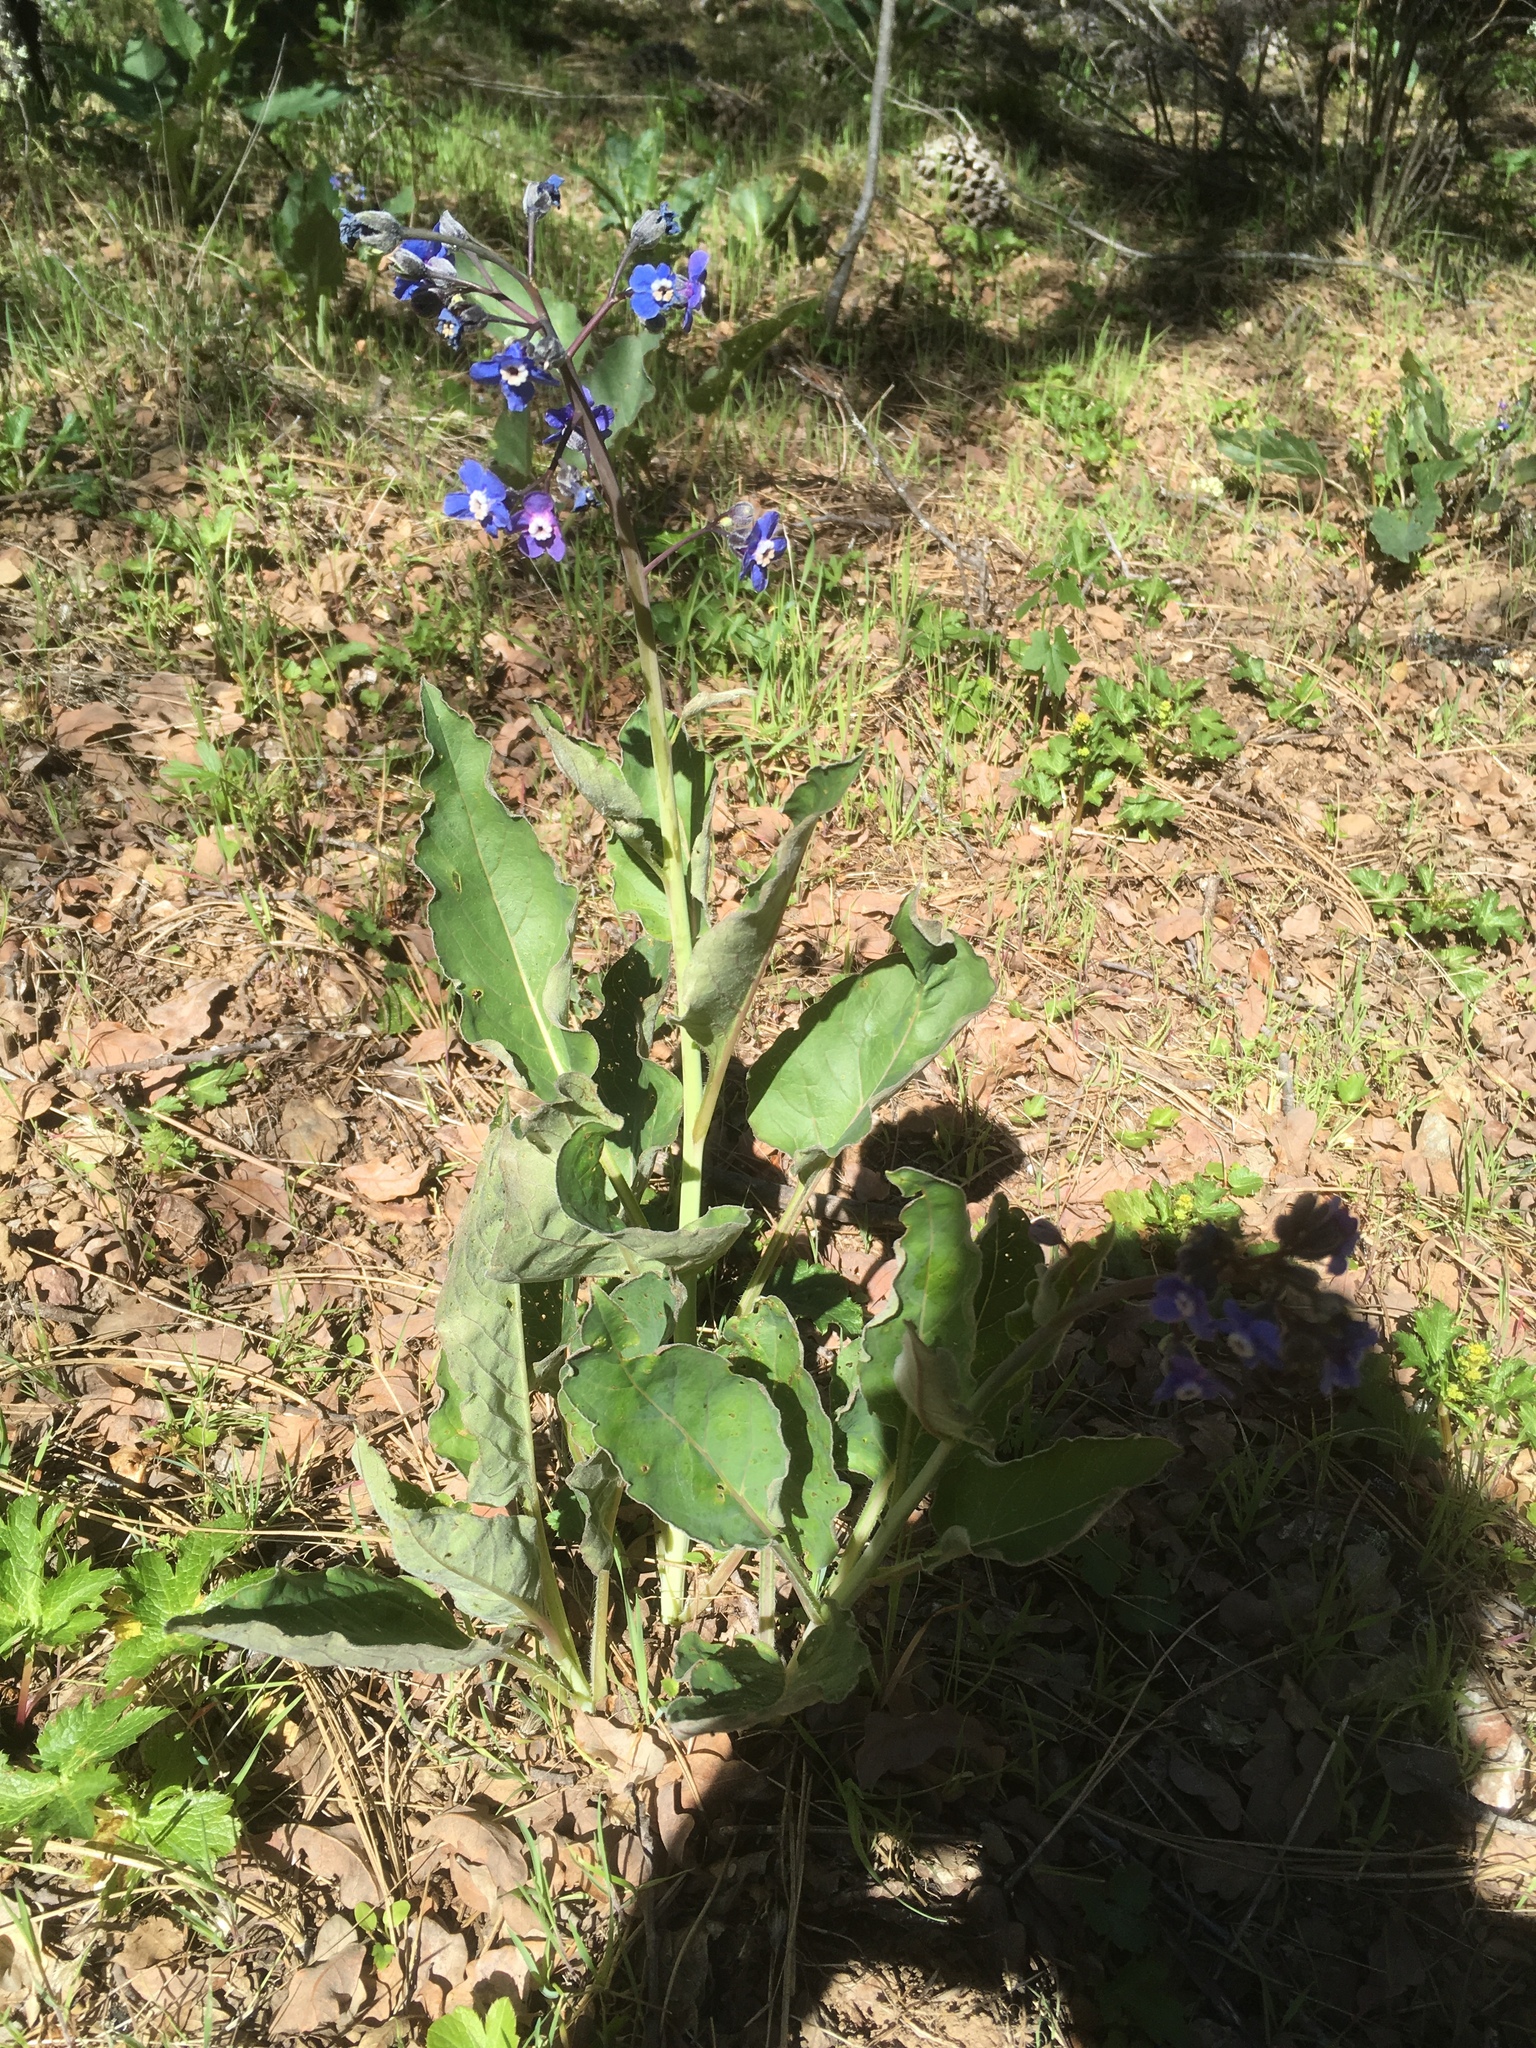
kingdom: Plantae
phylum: Tracheophyta
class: Magnoliopsida
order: Boraginales
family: Boraginaceae
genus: Adelinia
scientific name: Adelinia grande
